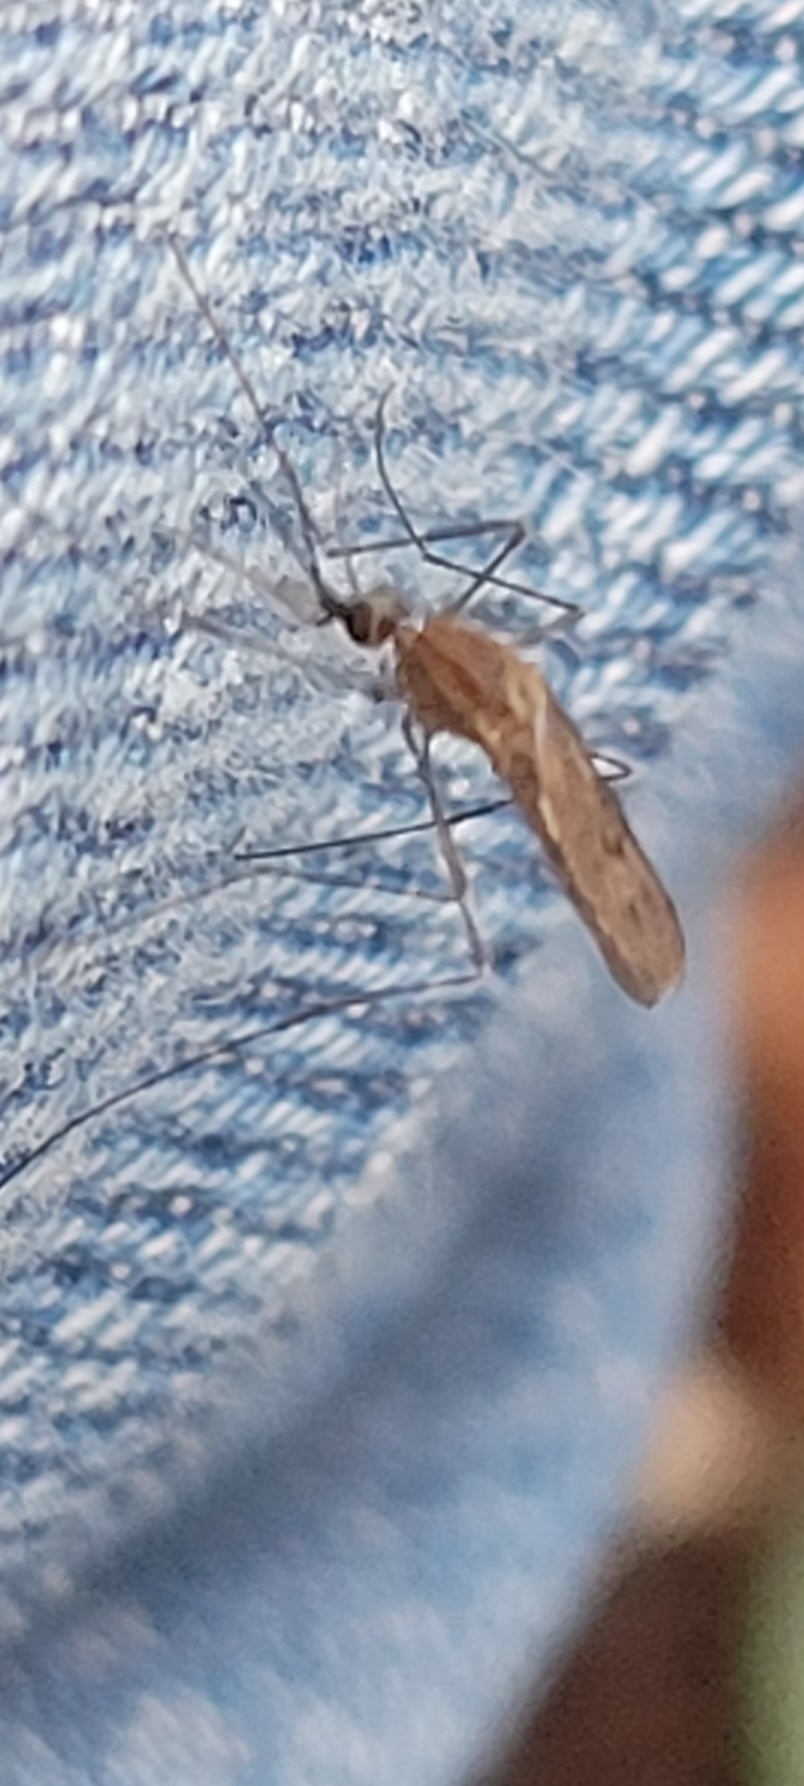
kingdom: Animalia
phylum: Arthropoda
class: Insecta
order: Diptera
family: Culicidae
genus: Anopheles
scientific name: Anopheles quadrimaculatus
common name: Common malaria mosquito
